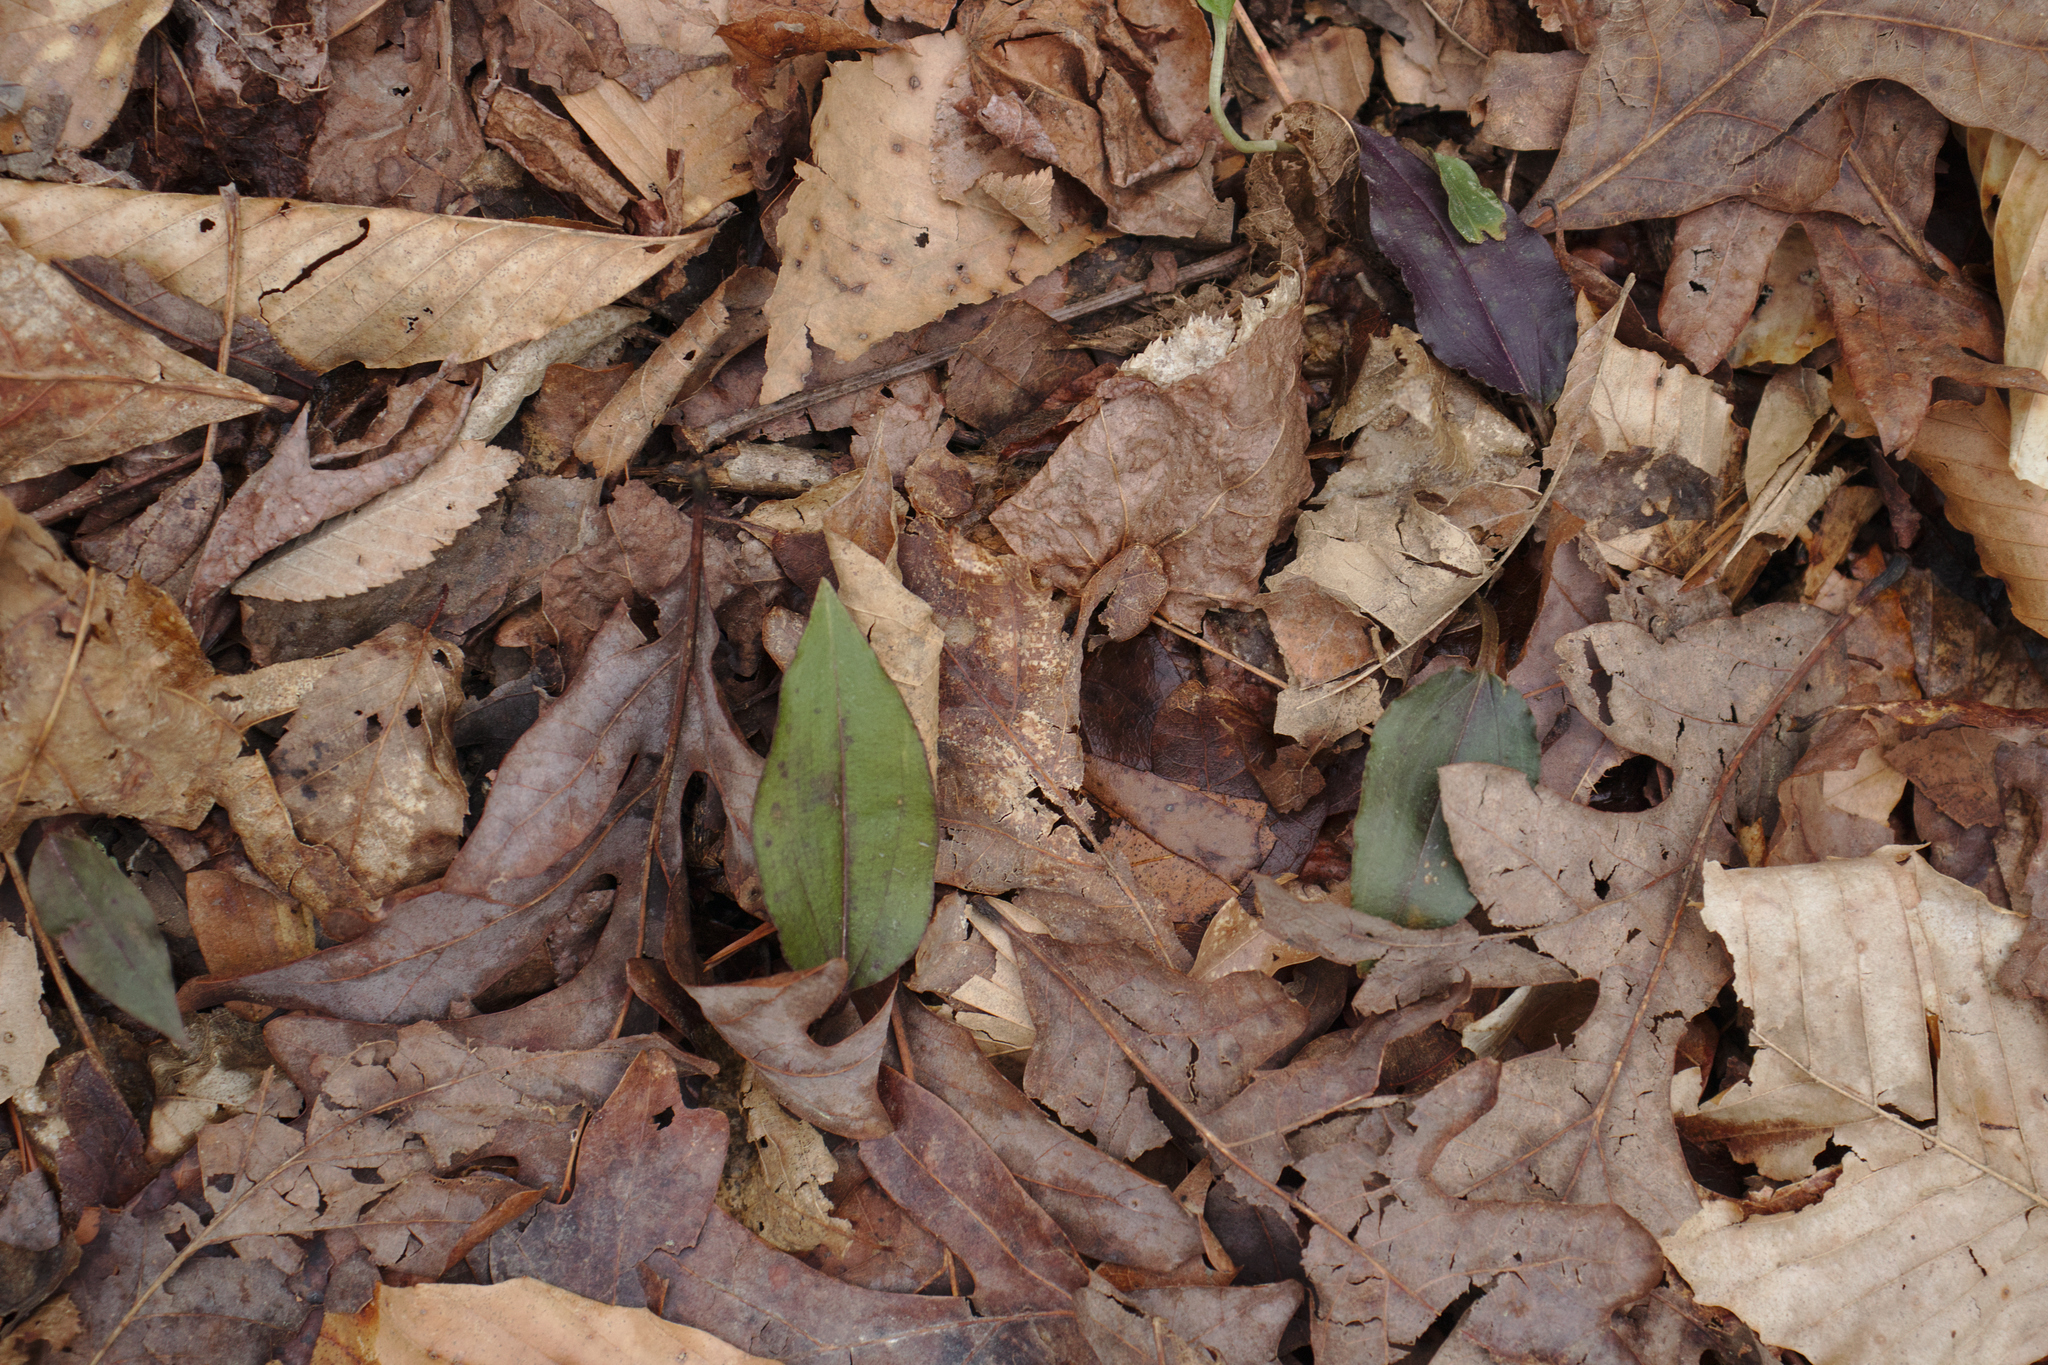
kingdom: Plantae
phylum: Tracheophyta
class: Liliopsida
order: Asparagales
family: Orchidaceae
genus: Tipularia
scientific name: Tipularia discolor
